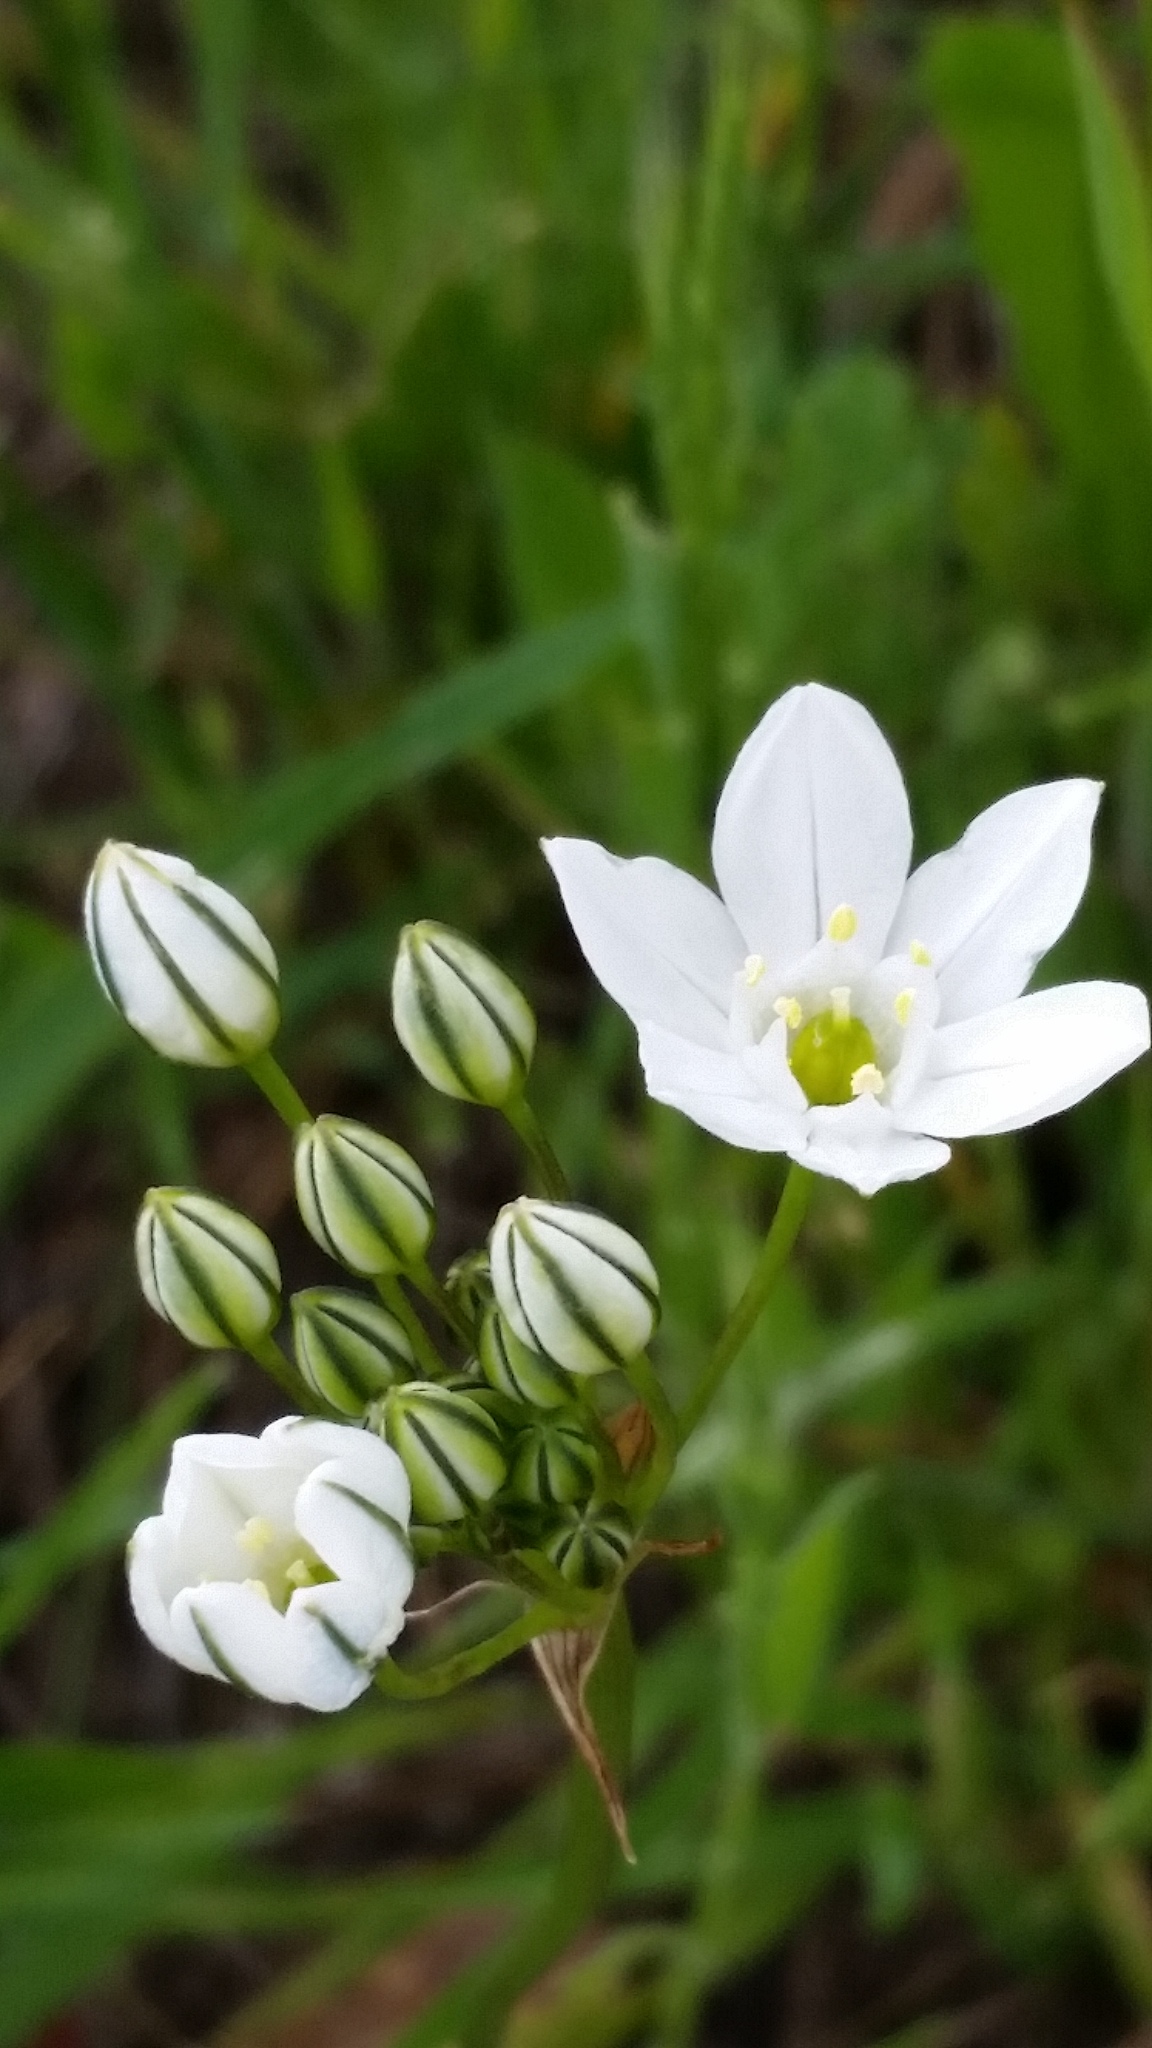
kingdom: Plantae
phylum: Tracheophyta
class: Liliopsida
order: Asparagales
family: Asparagaceae
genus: Triteleia
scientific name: Triteleia hyacinthina
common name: White brodiaea
